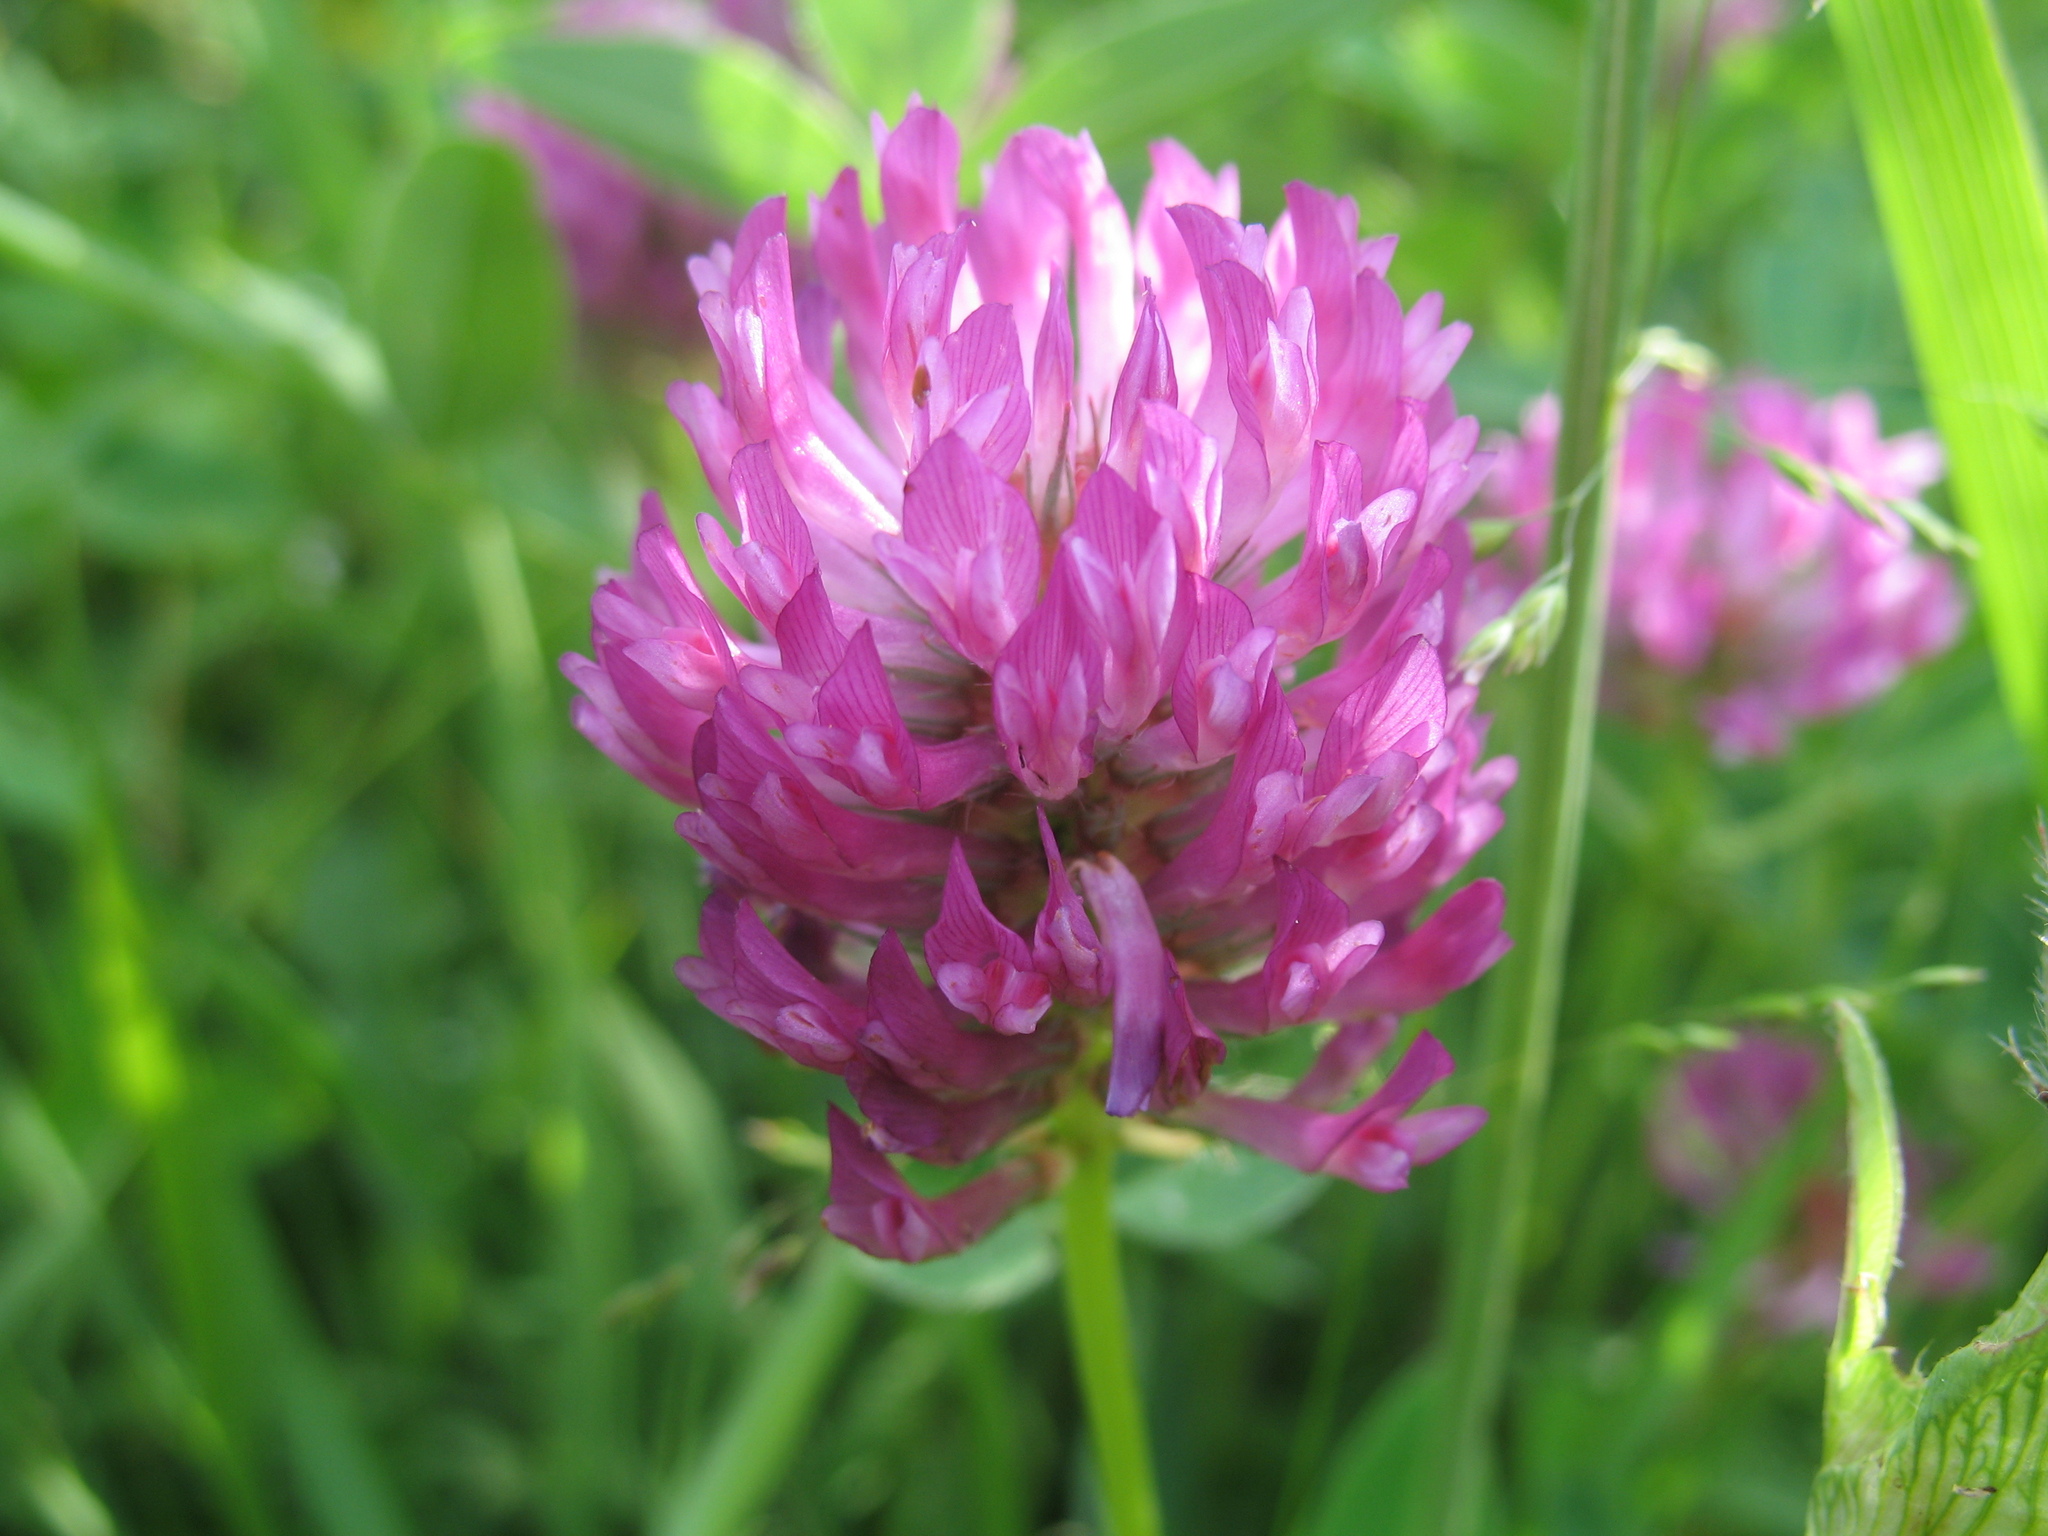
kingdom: Plantae
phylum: Tracheophyta
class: Magnoliopsida
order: Fabales
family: Fabaceae
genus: Trifolium
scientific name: Trifolium pratense
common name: Red clover
